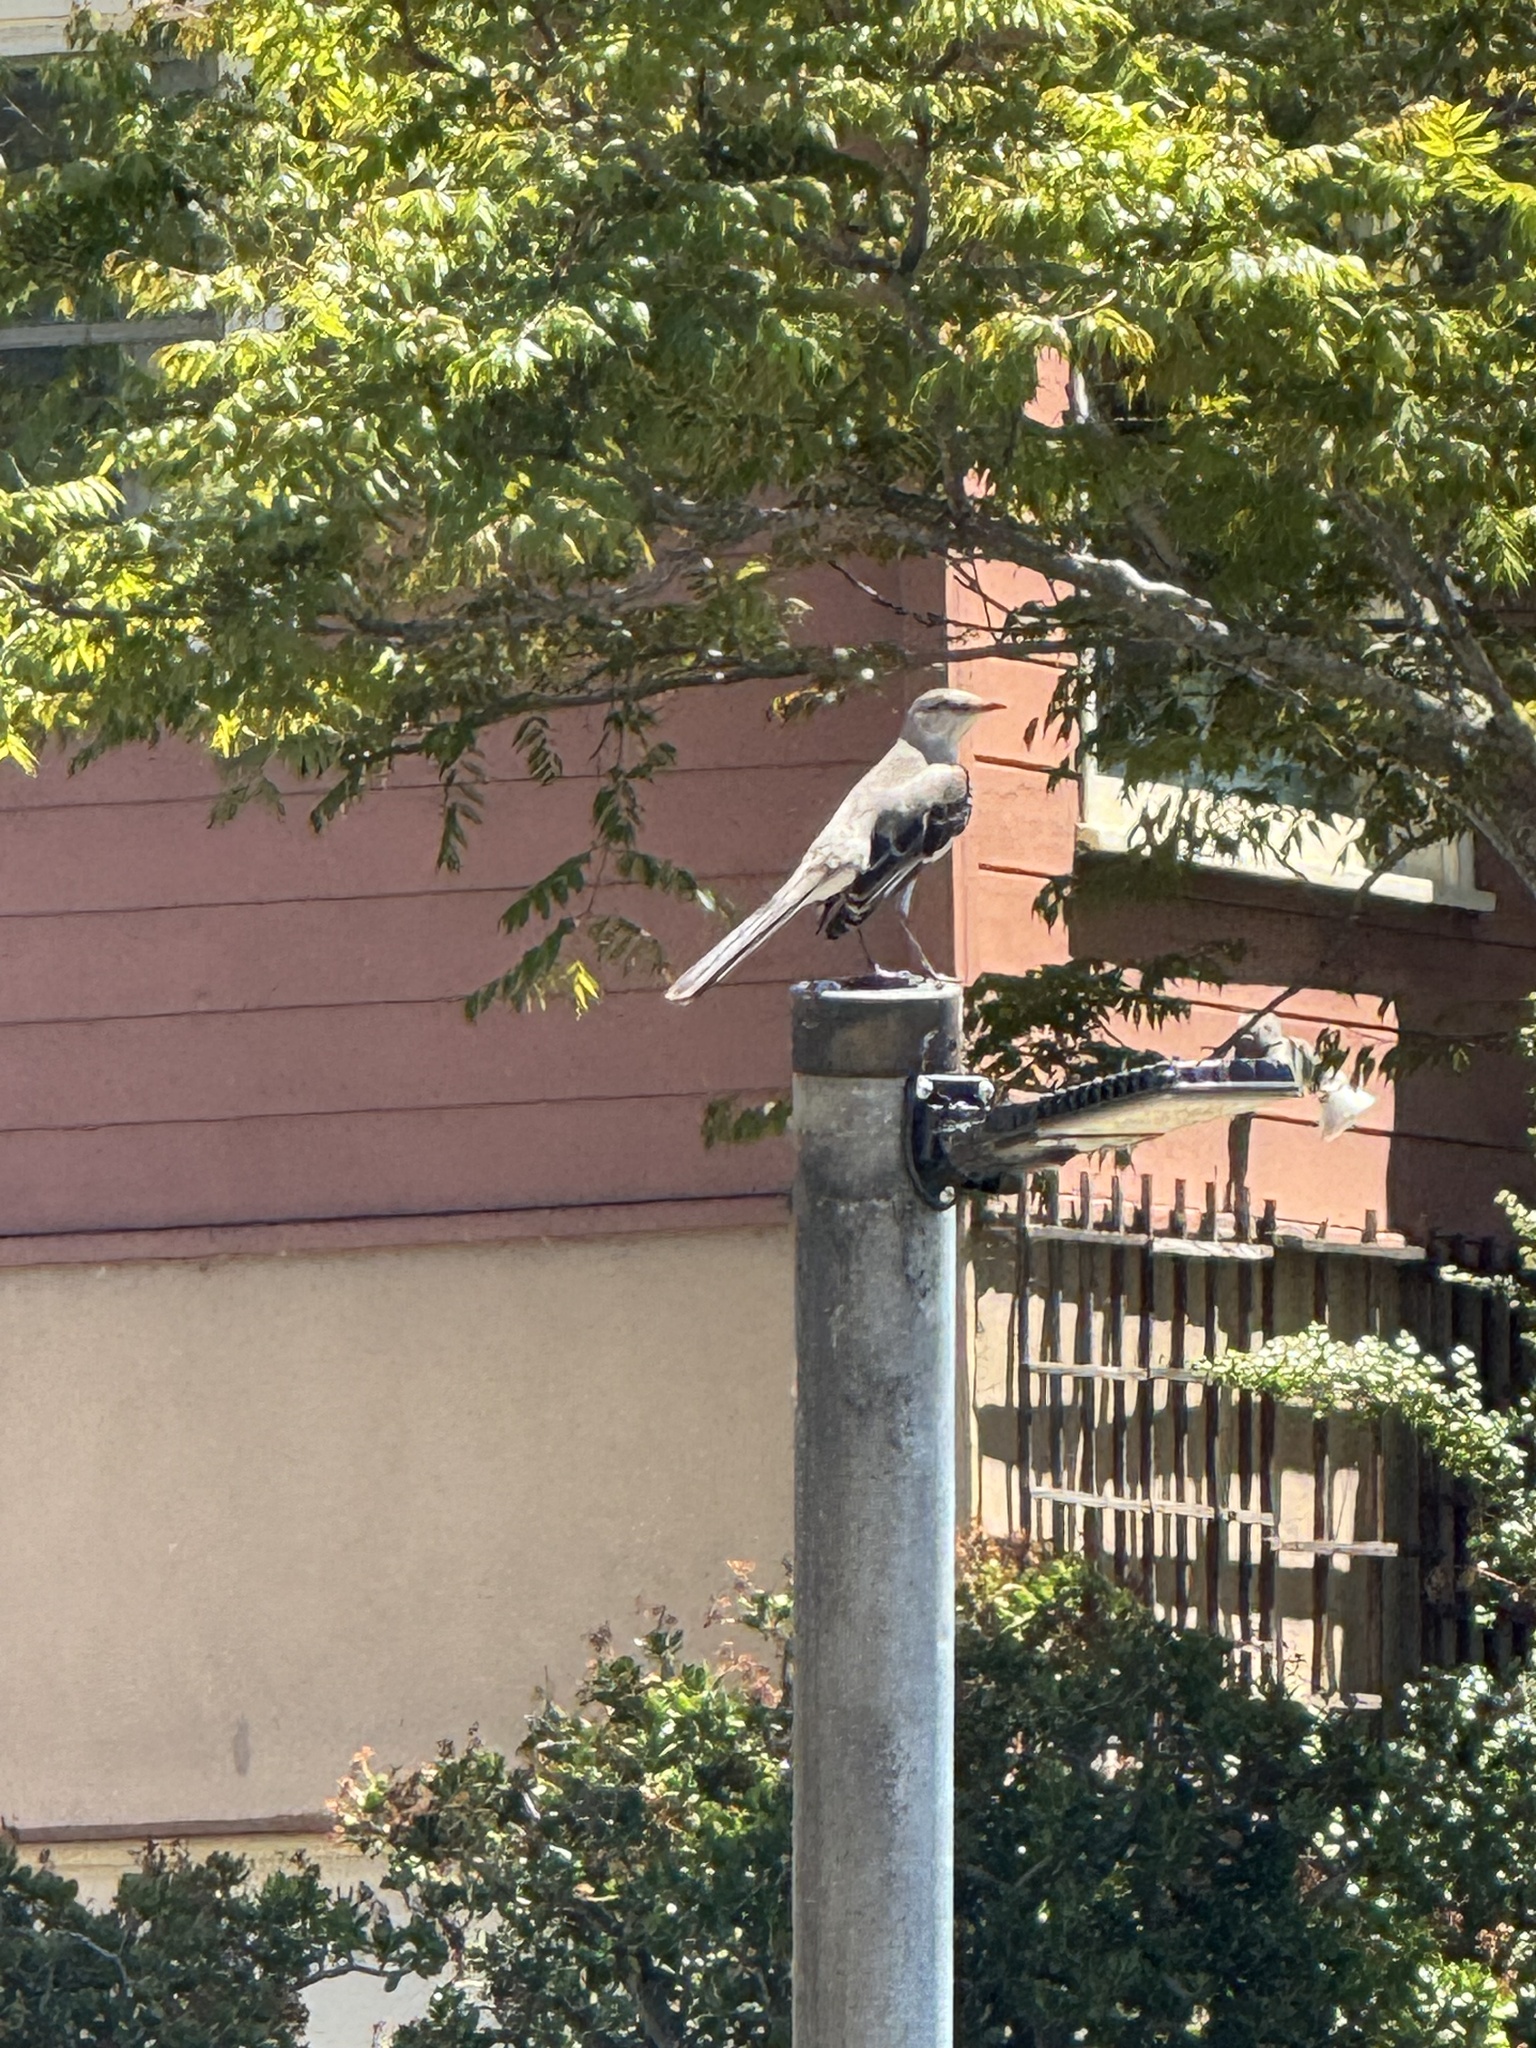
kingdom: Animalia
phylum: Chordata
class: Aves
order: Passeriformes
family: Mimidae
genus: Mimus
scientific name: Mimus polyglottos
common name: Northern mockingbird
